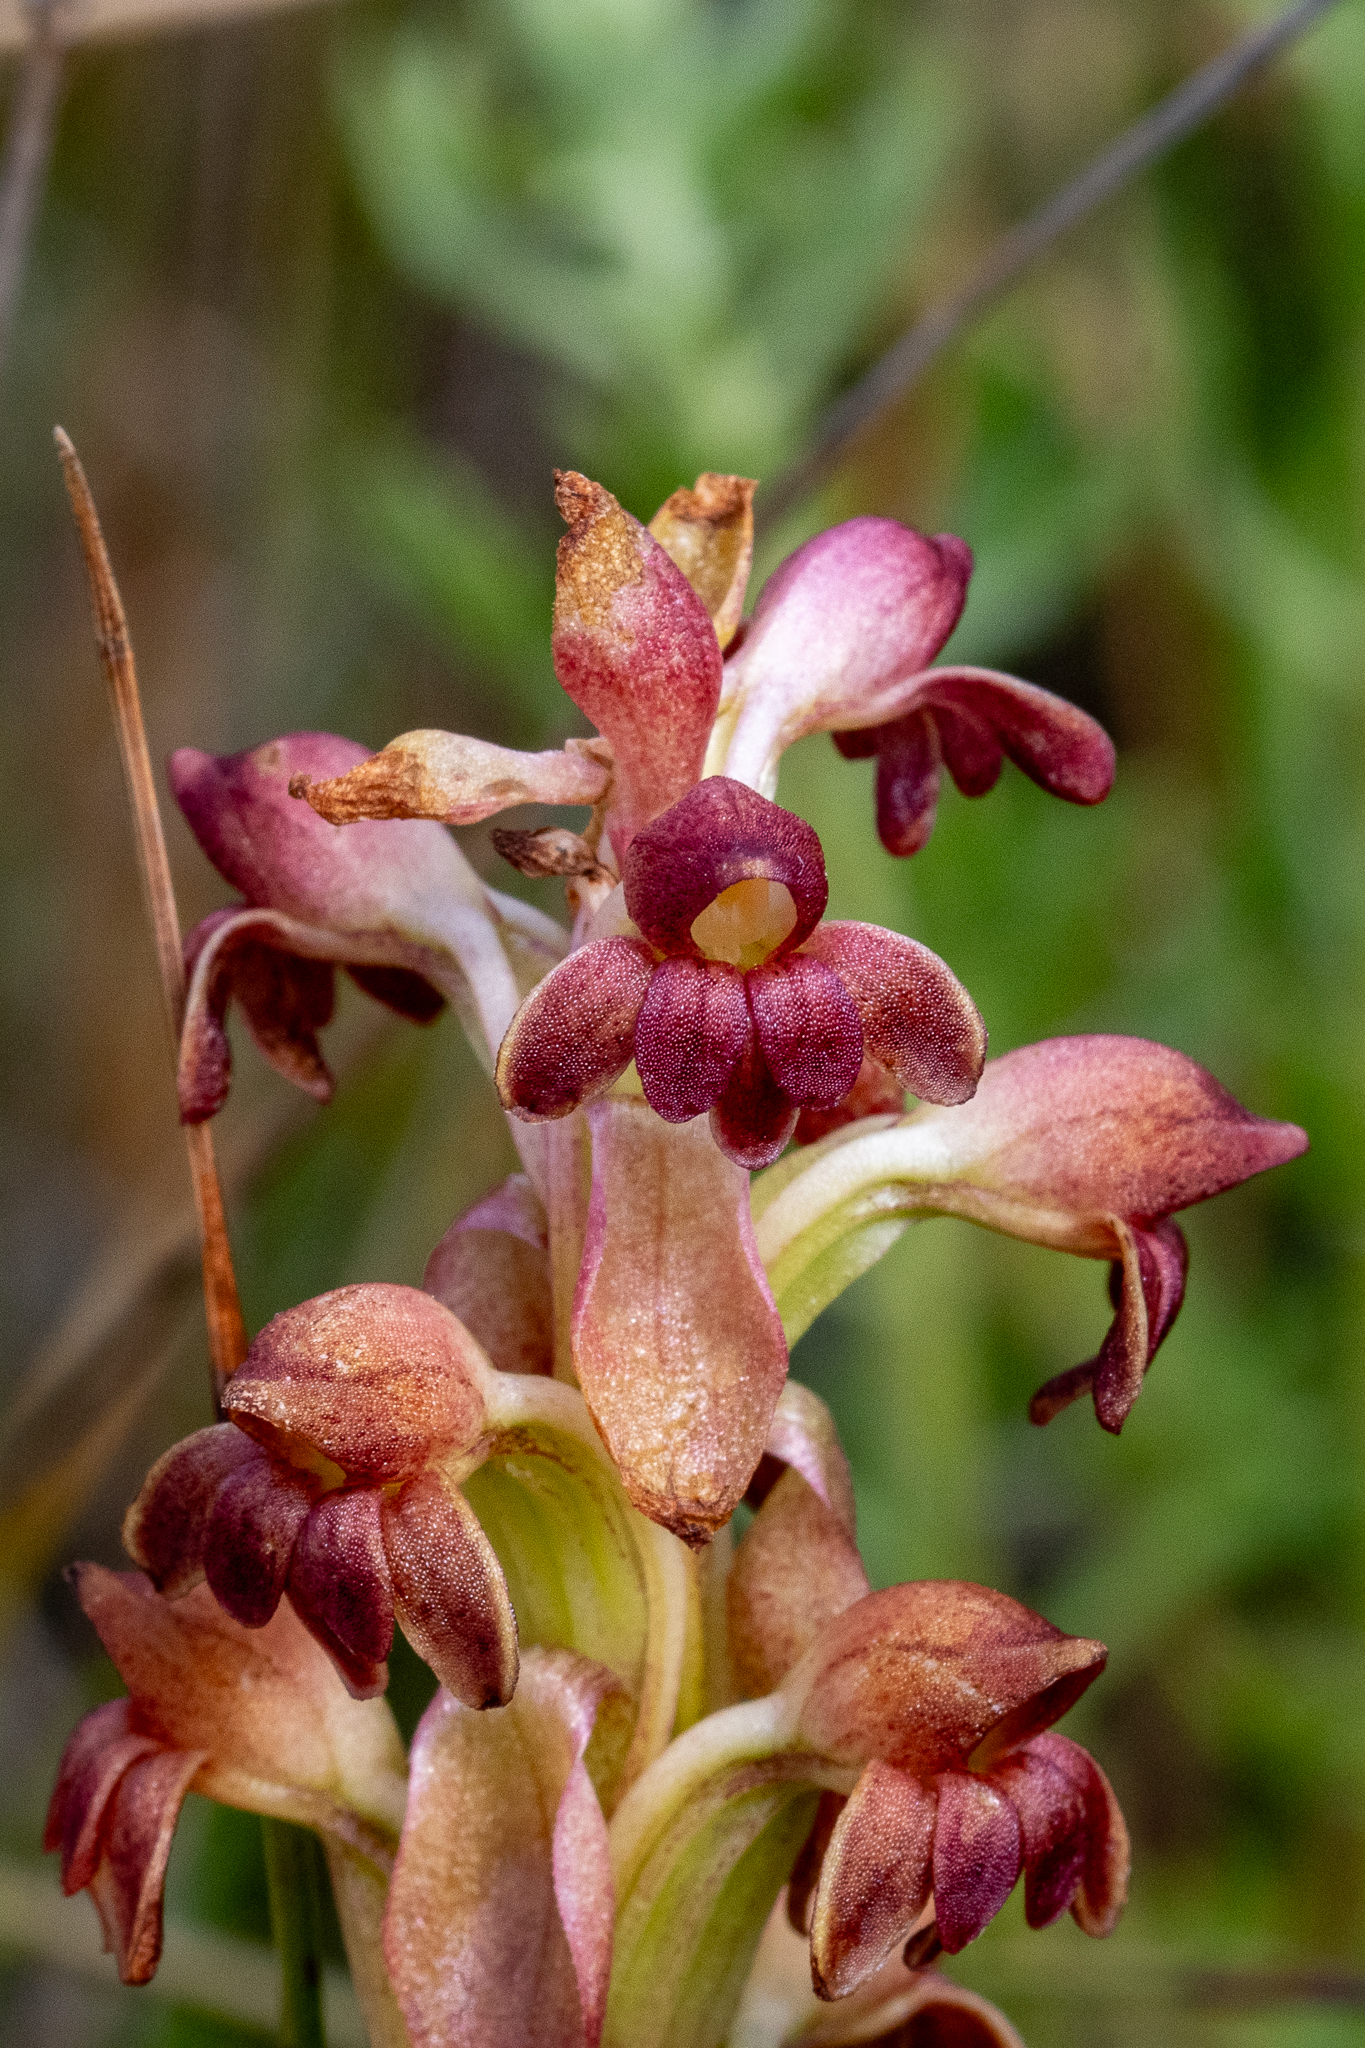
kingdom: Plantae
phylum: Tracheophyta
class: Liliopsida
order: Asparagales
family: Orchidaceae
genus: Satyrium
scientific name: Satyrium bicorne
